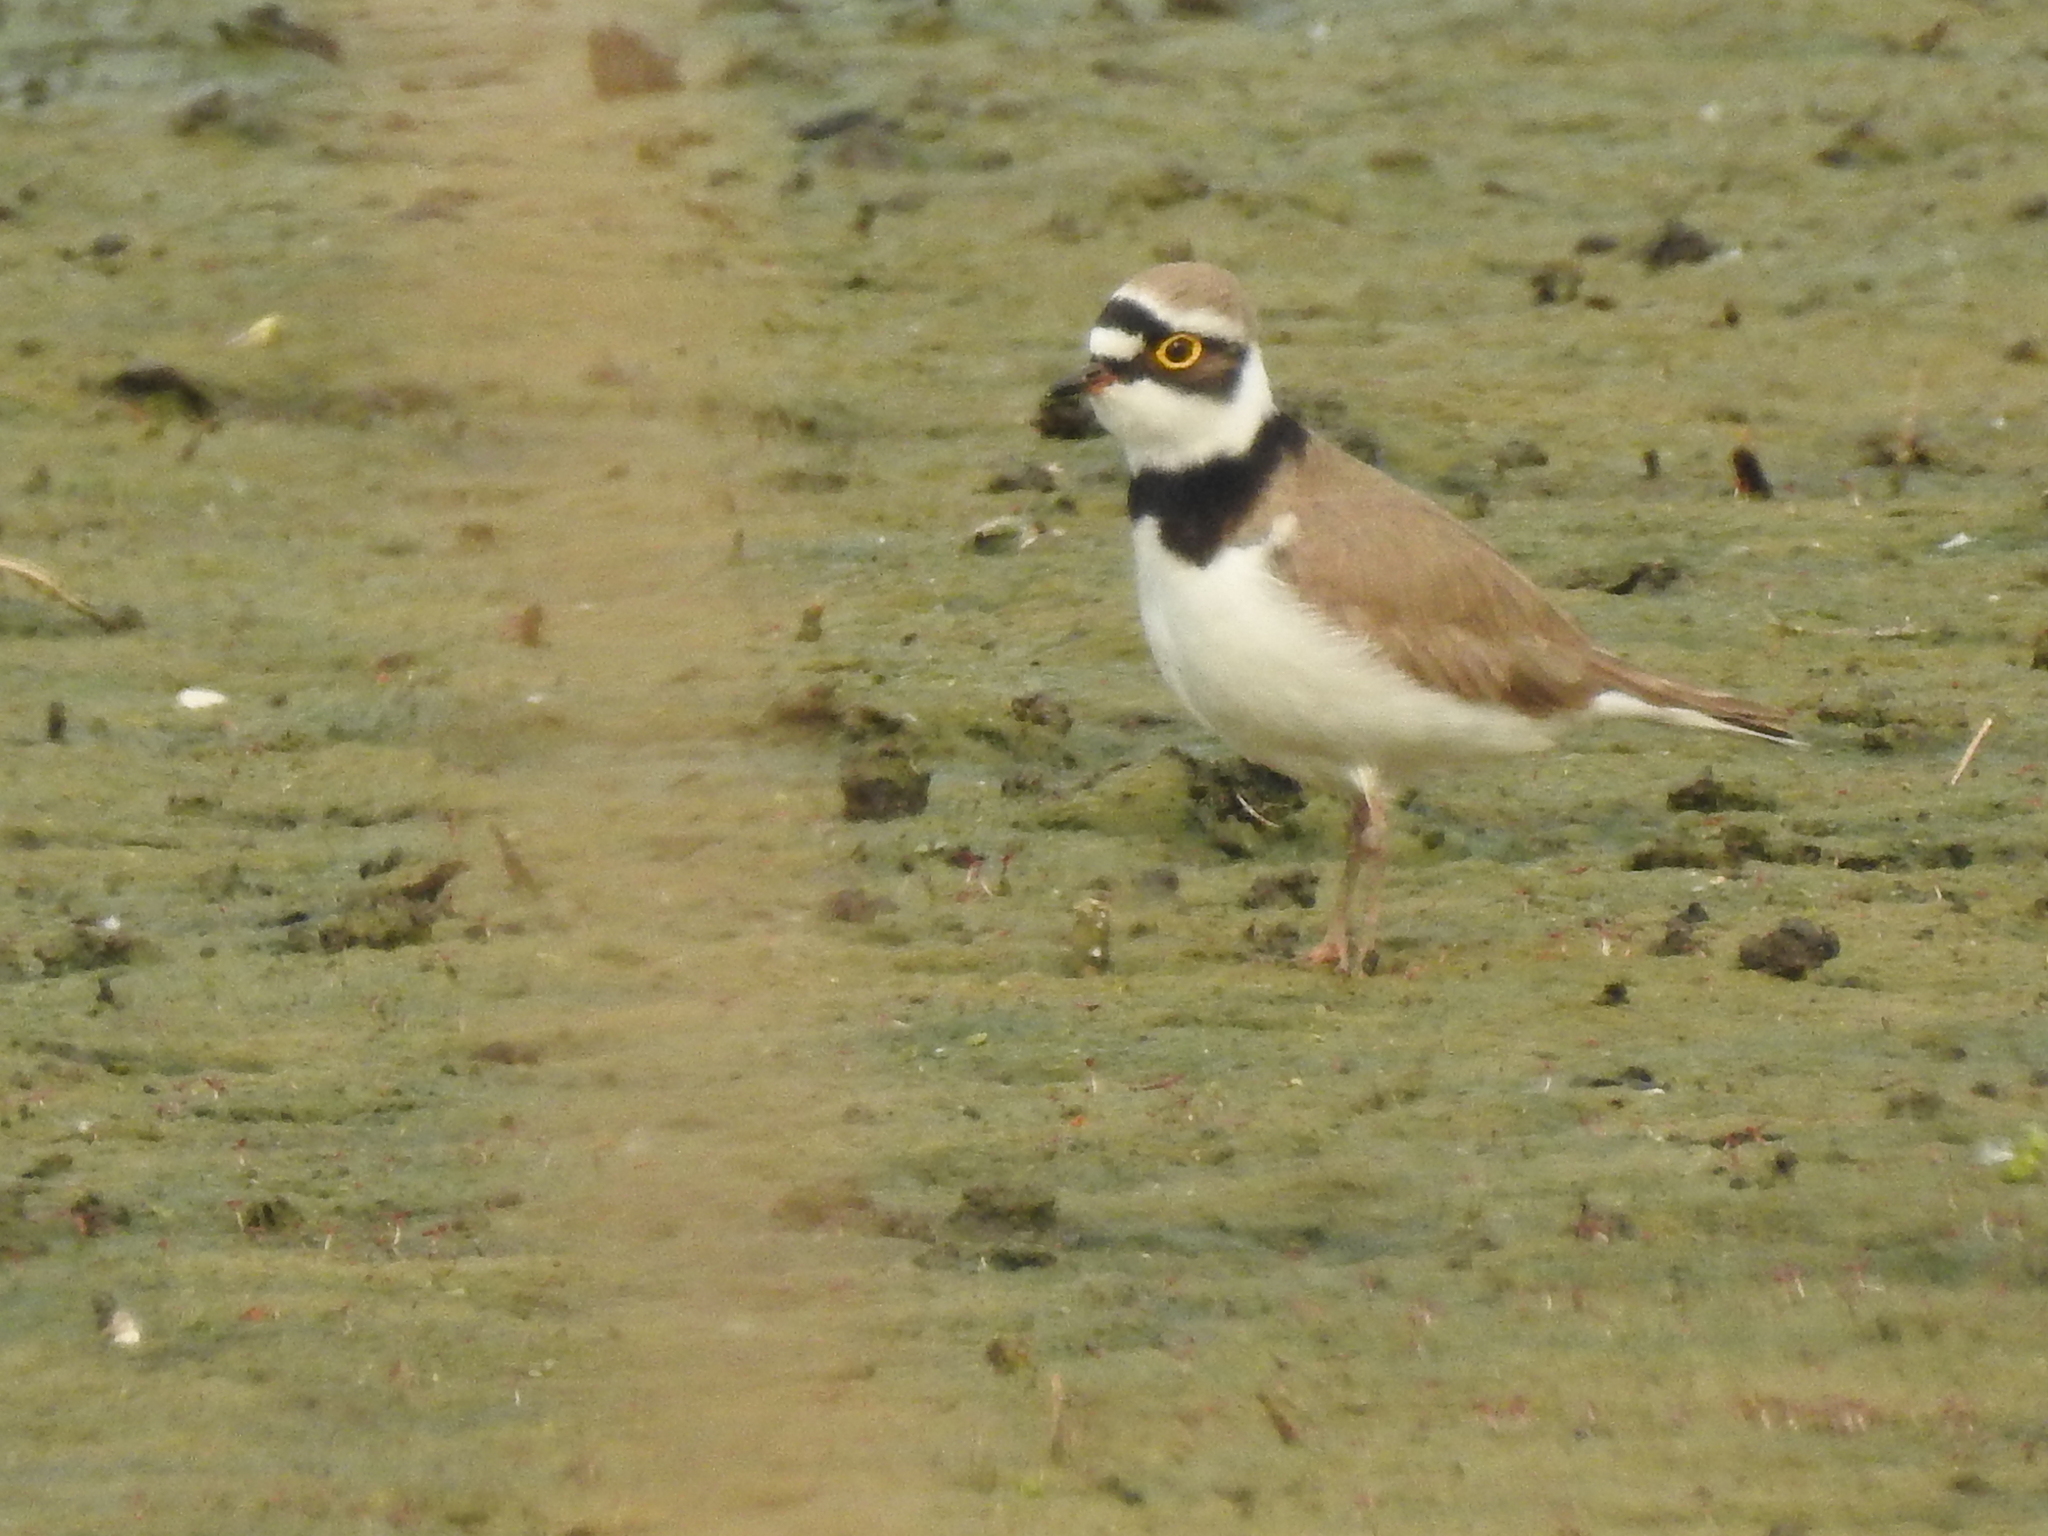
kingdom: Animalia
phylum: Chordata
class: Aves
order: Charadriiformes
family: Charadriidae
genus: Charadrius
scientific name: Charadrius dubius
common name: Little ringed plover
